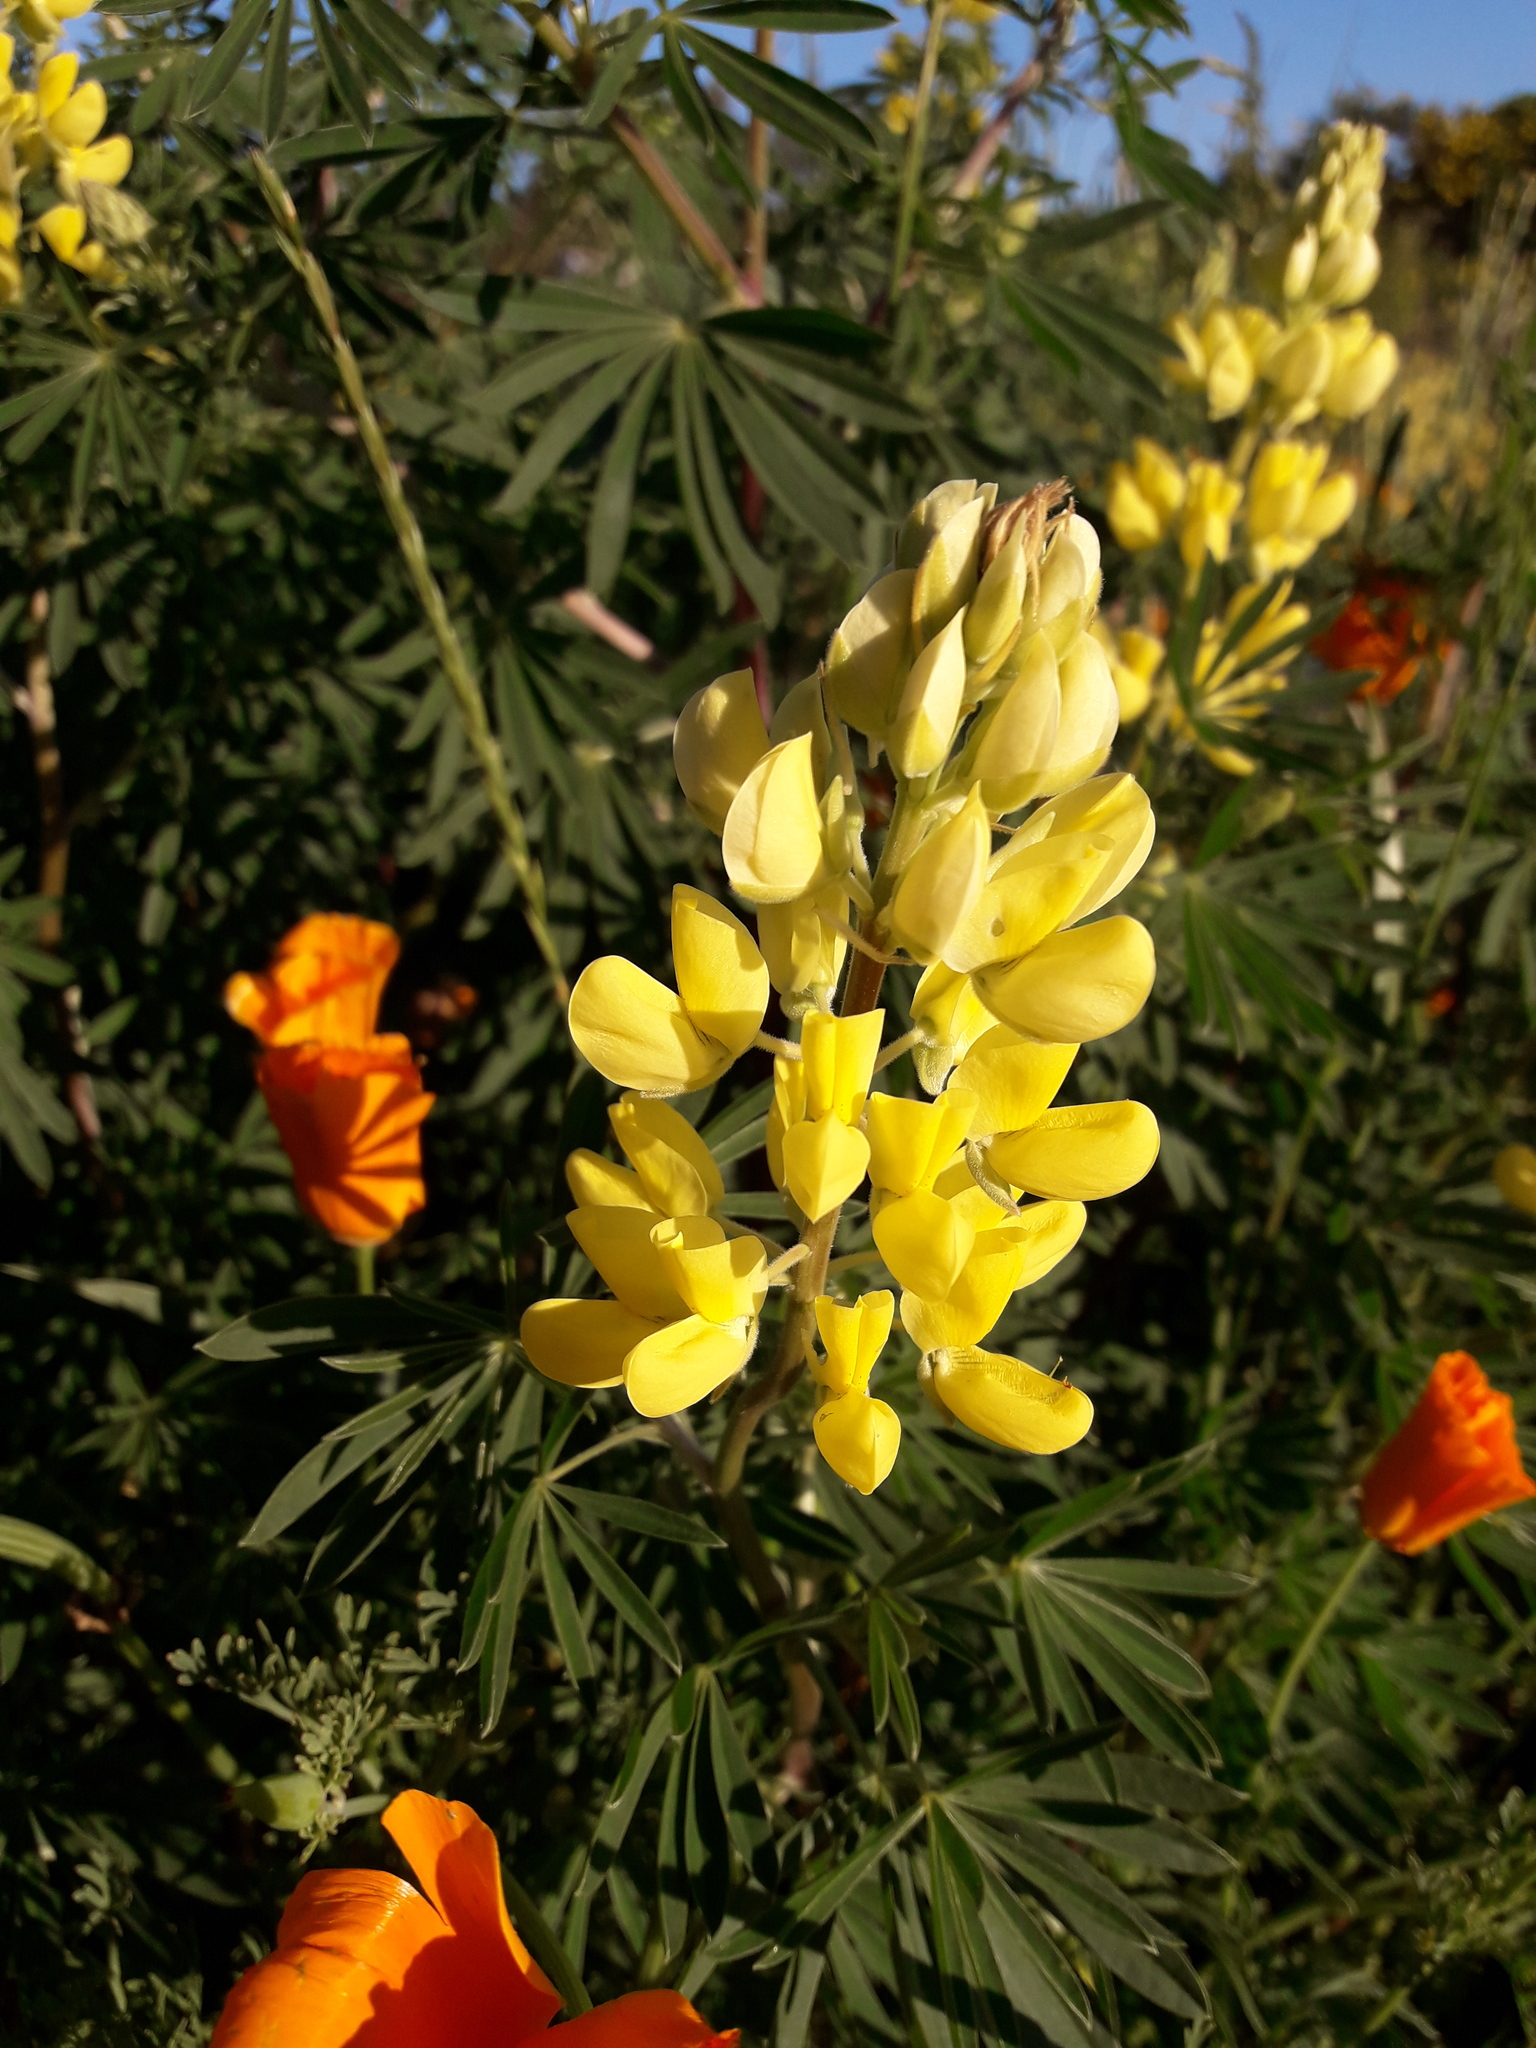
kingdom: Plantae
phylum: Tracheophyta
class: Magnoliopsida
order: Fabales
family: Fabaceae
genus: Lupinus
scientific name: Lupinus arboreus
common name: Yellow bush lupine
